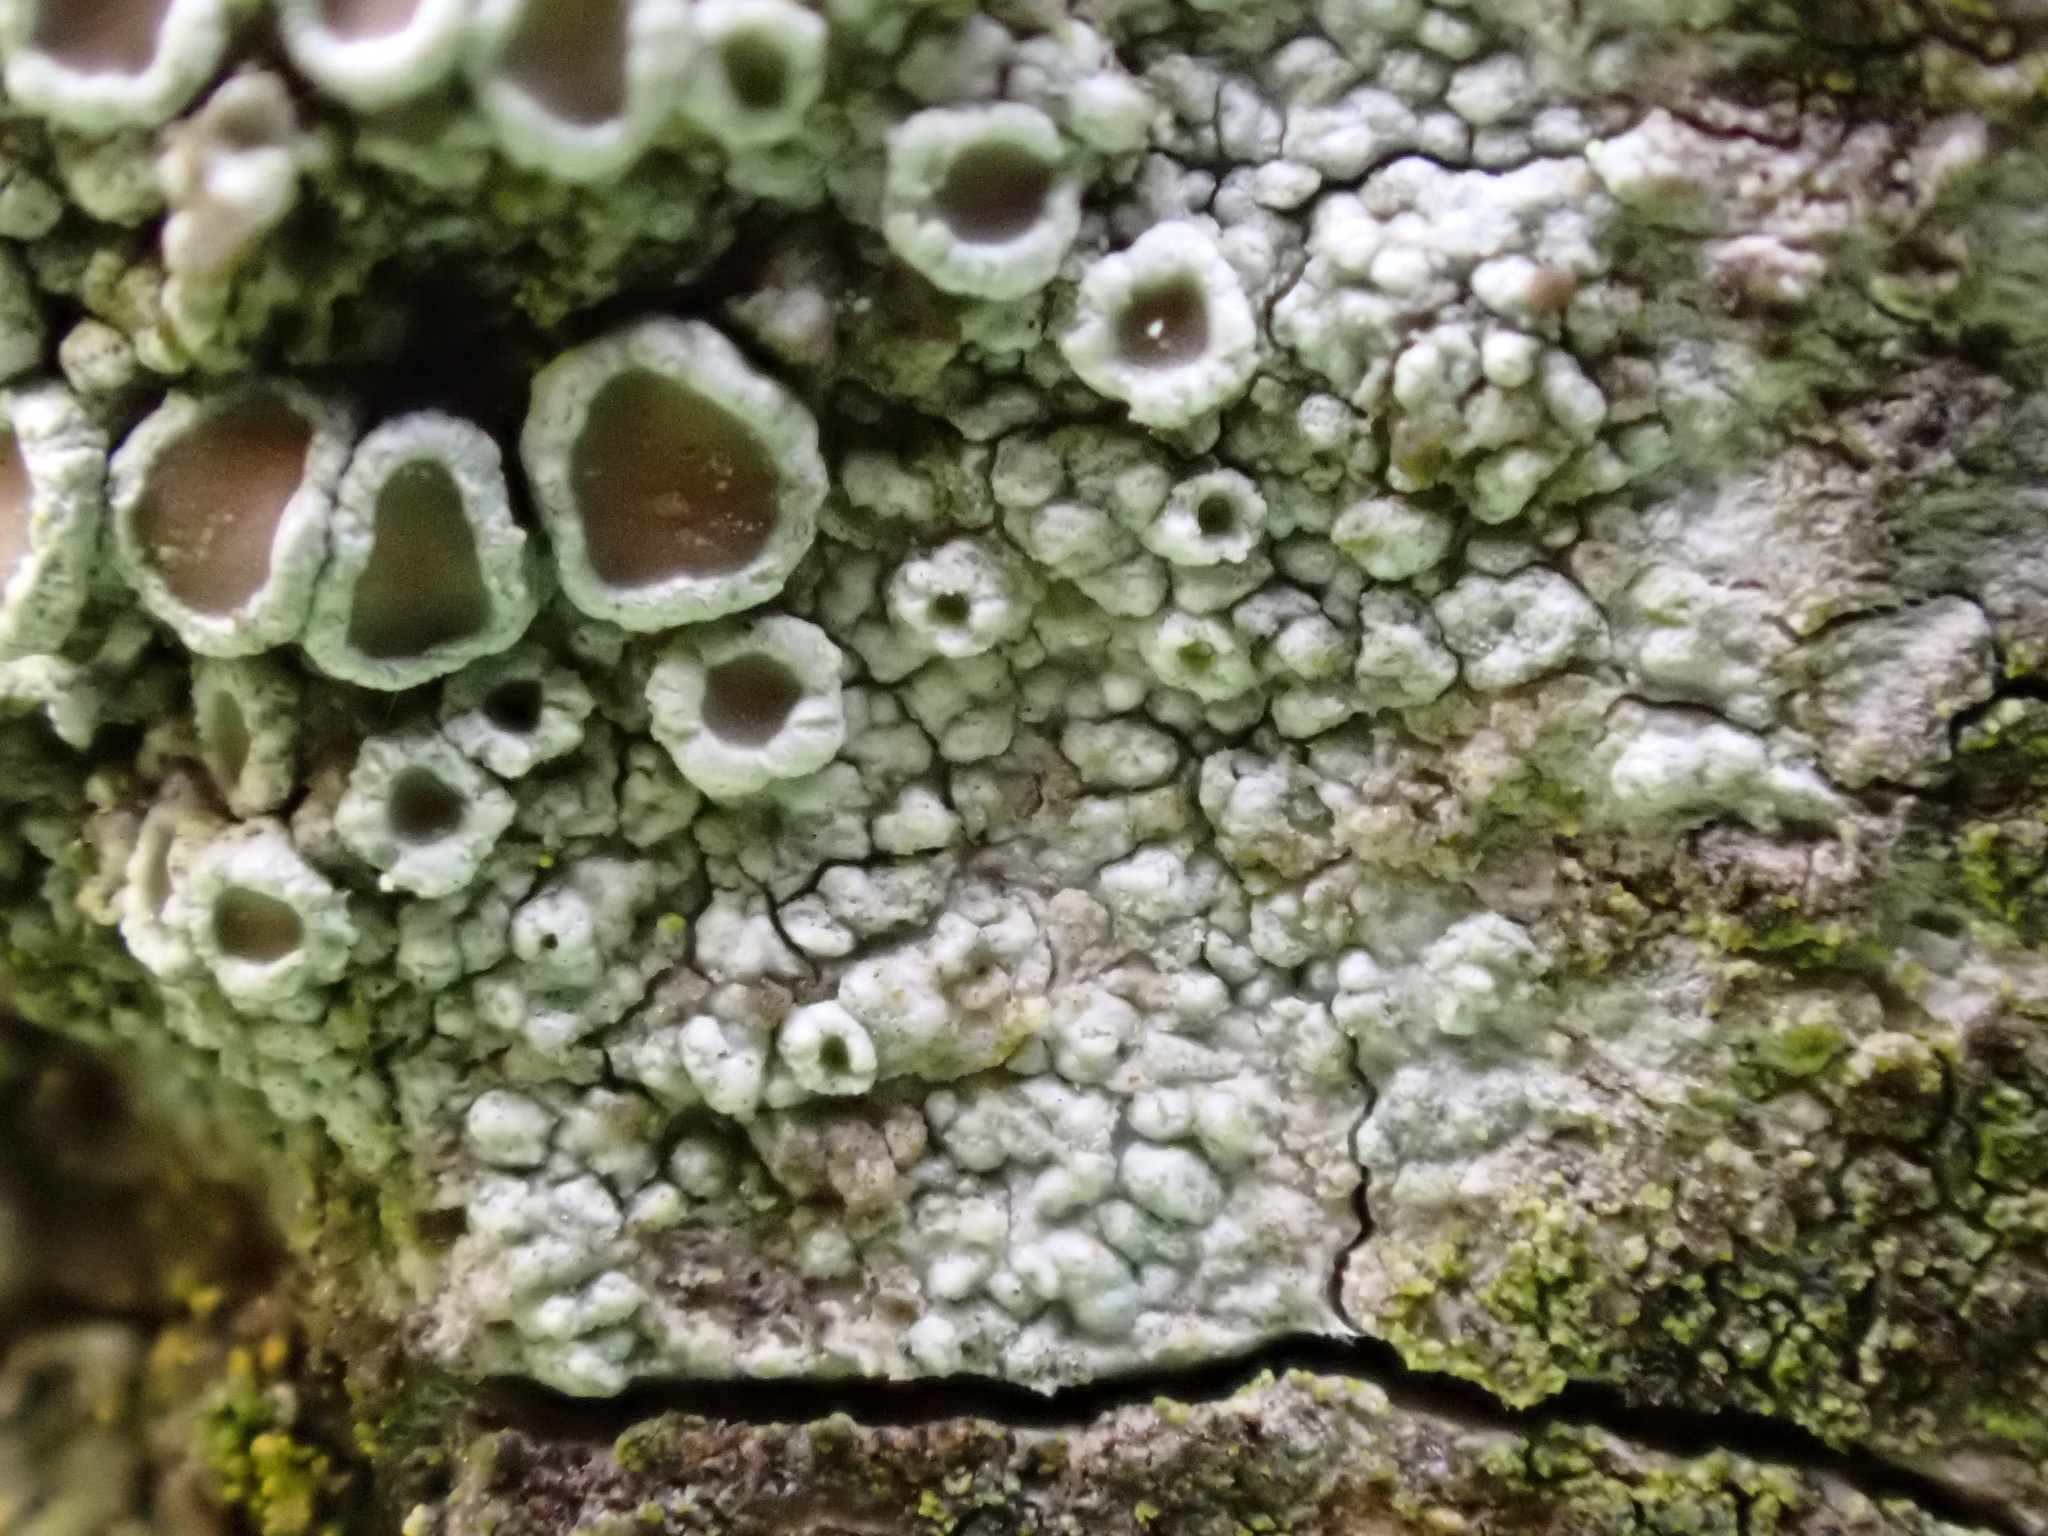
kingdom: Fungi
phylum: Ascomycota
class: Lecanoromycetes
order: Lecanorales
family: Lecanoraceae
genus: Lecanora
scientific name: Lecanora chlarotera
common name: Brown rim-lichen
